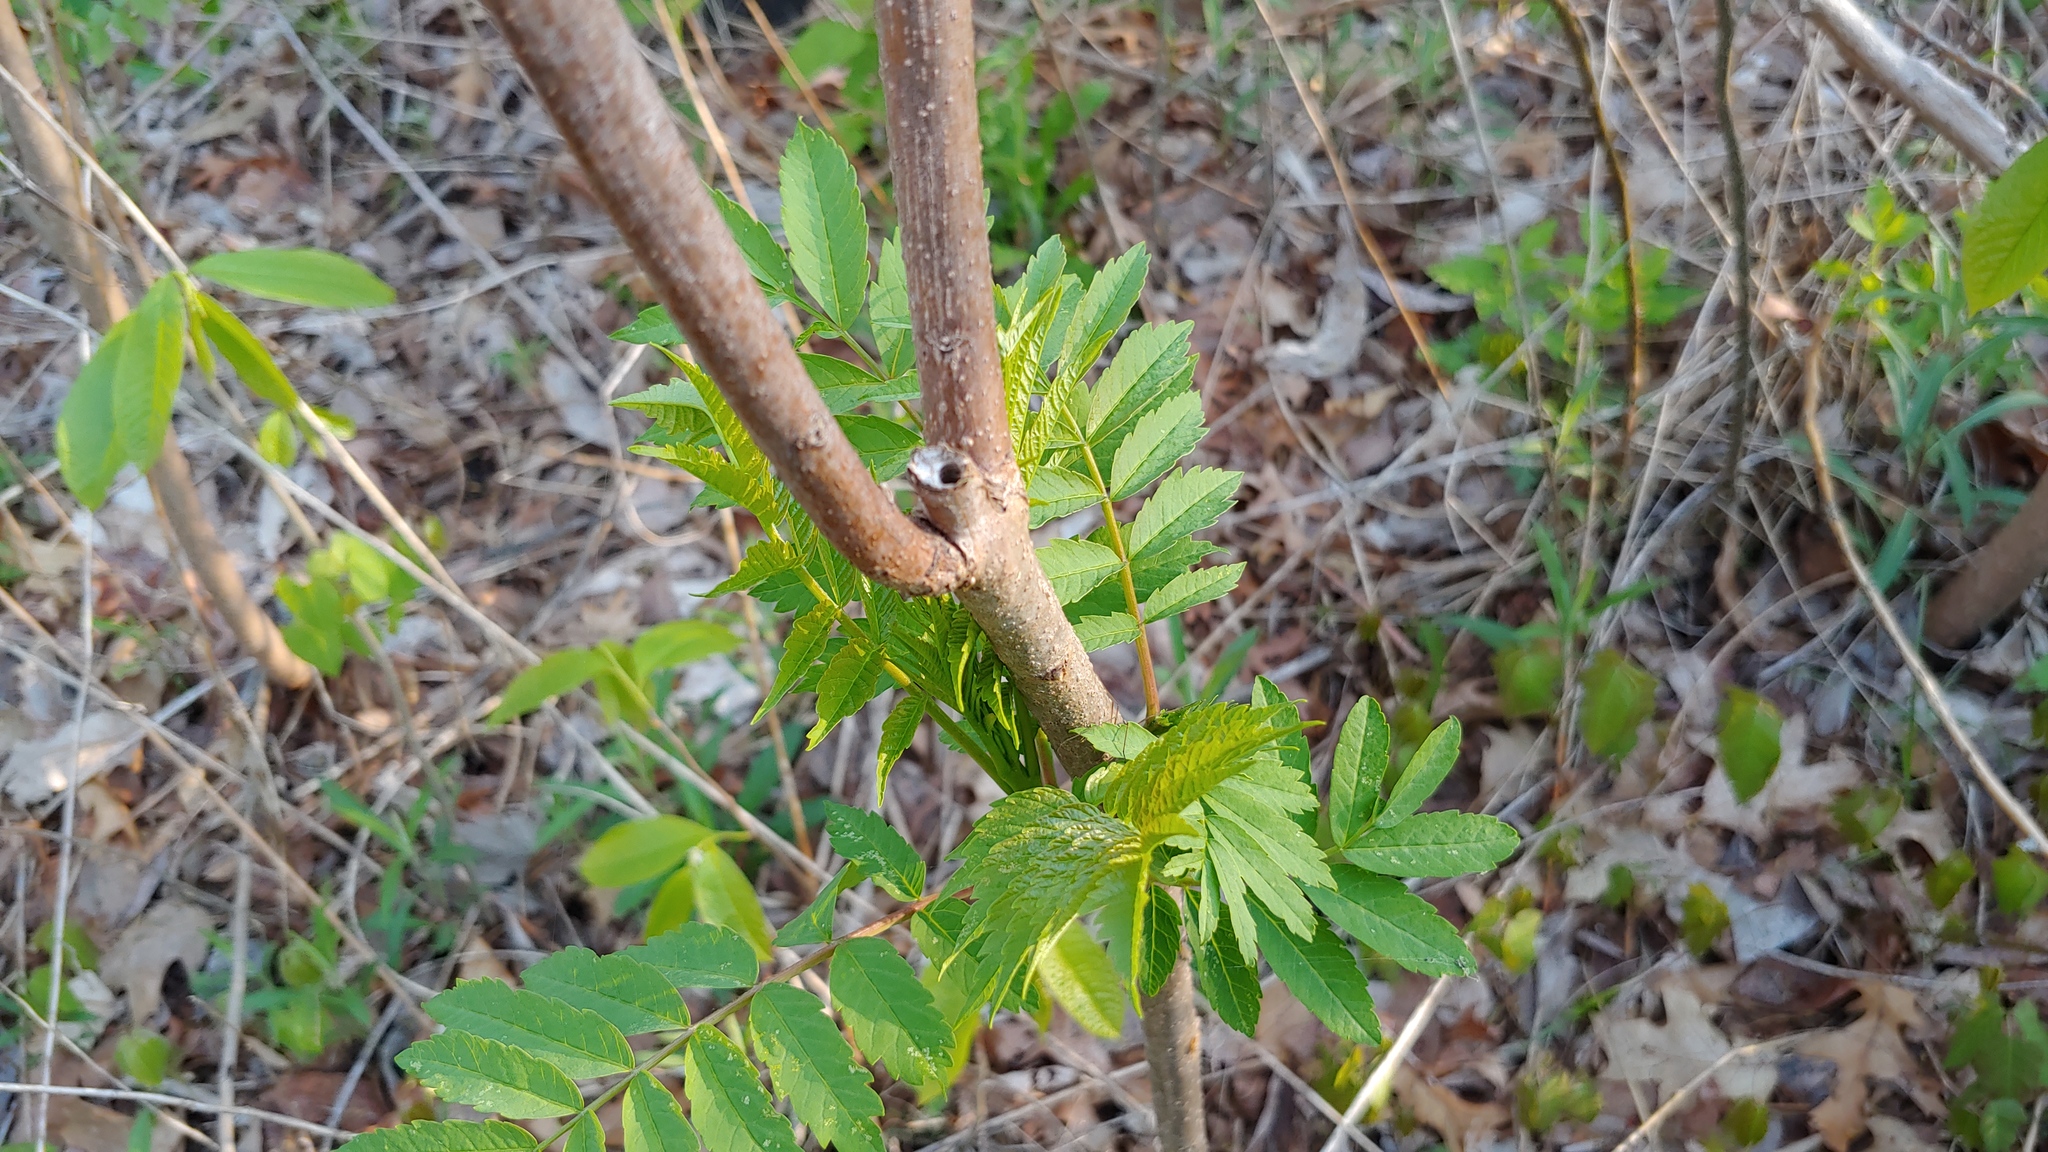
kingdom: Plantae
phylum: Tracheophyta
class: Magnoliopsida
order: Sapindales
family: Anacardiaceae
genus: Rhus
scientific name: Rhus glabra
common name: Scarlet sumac
